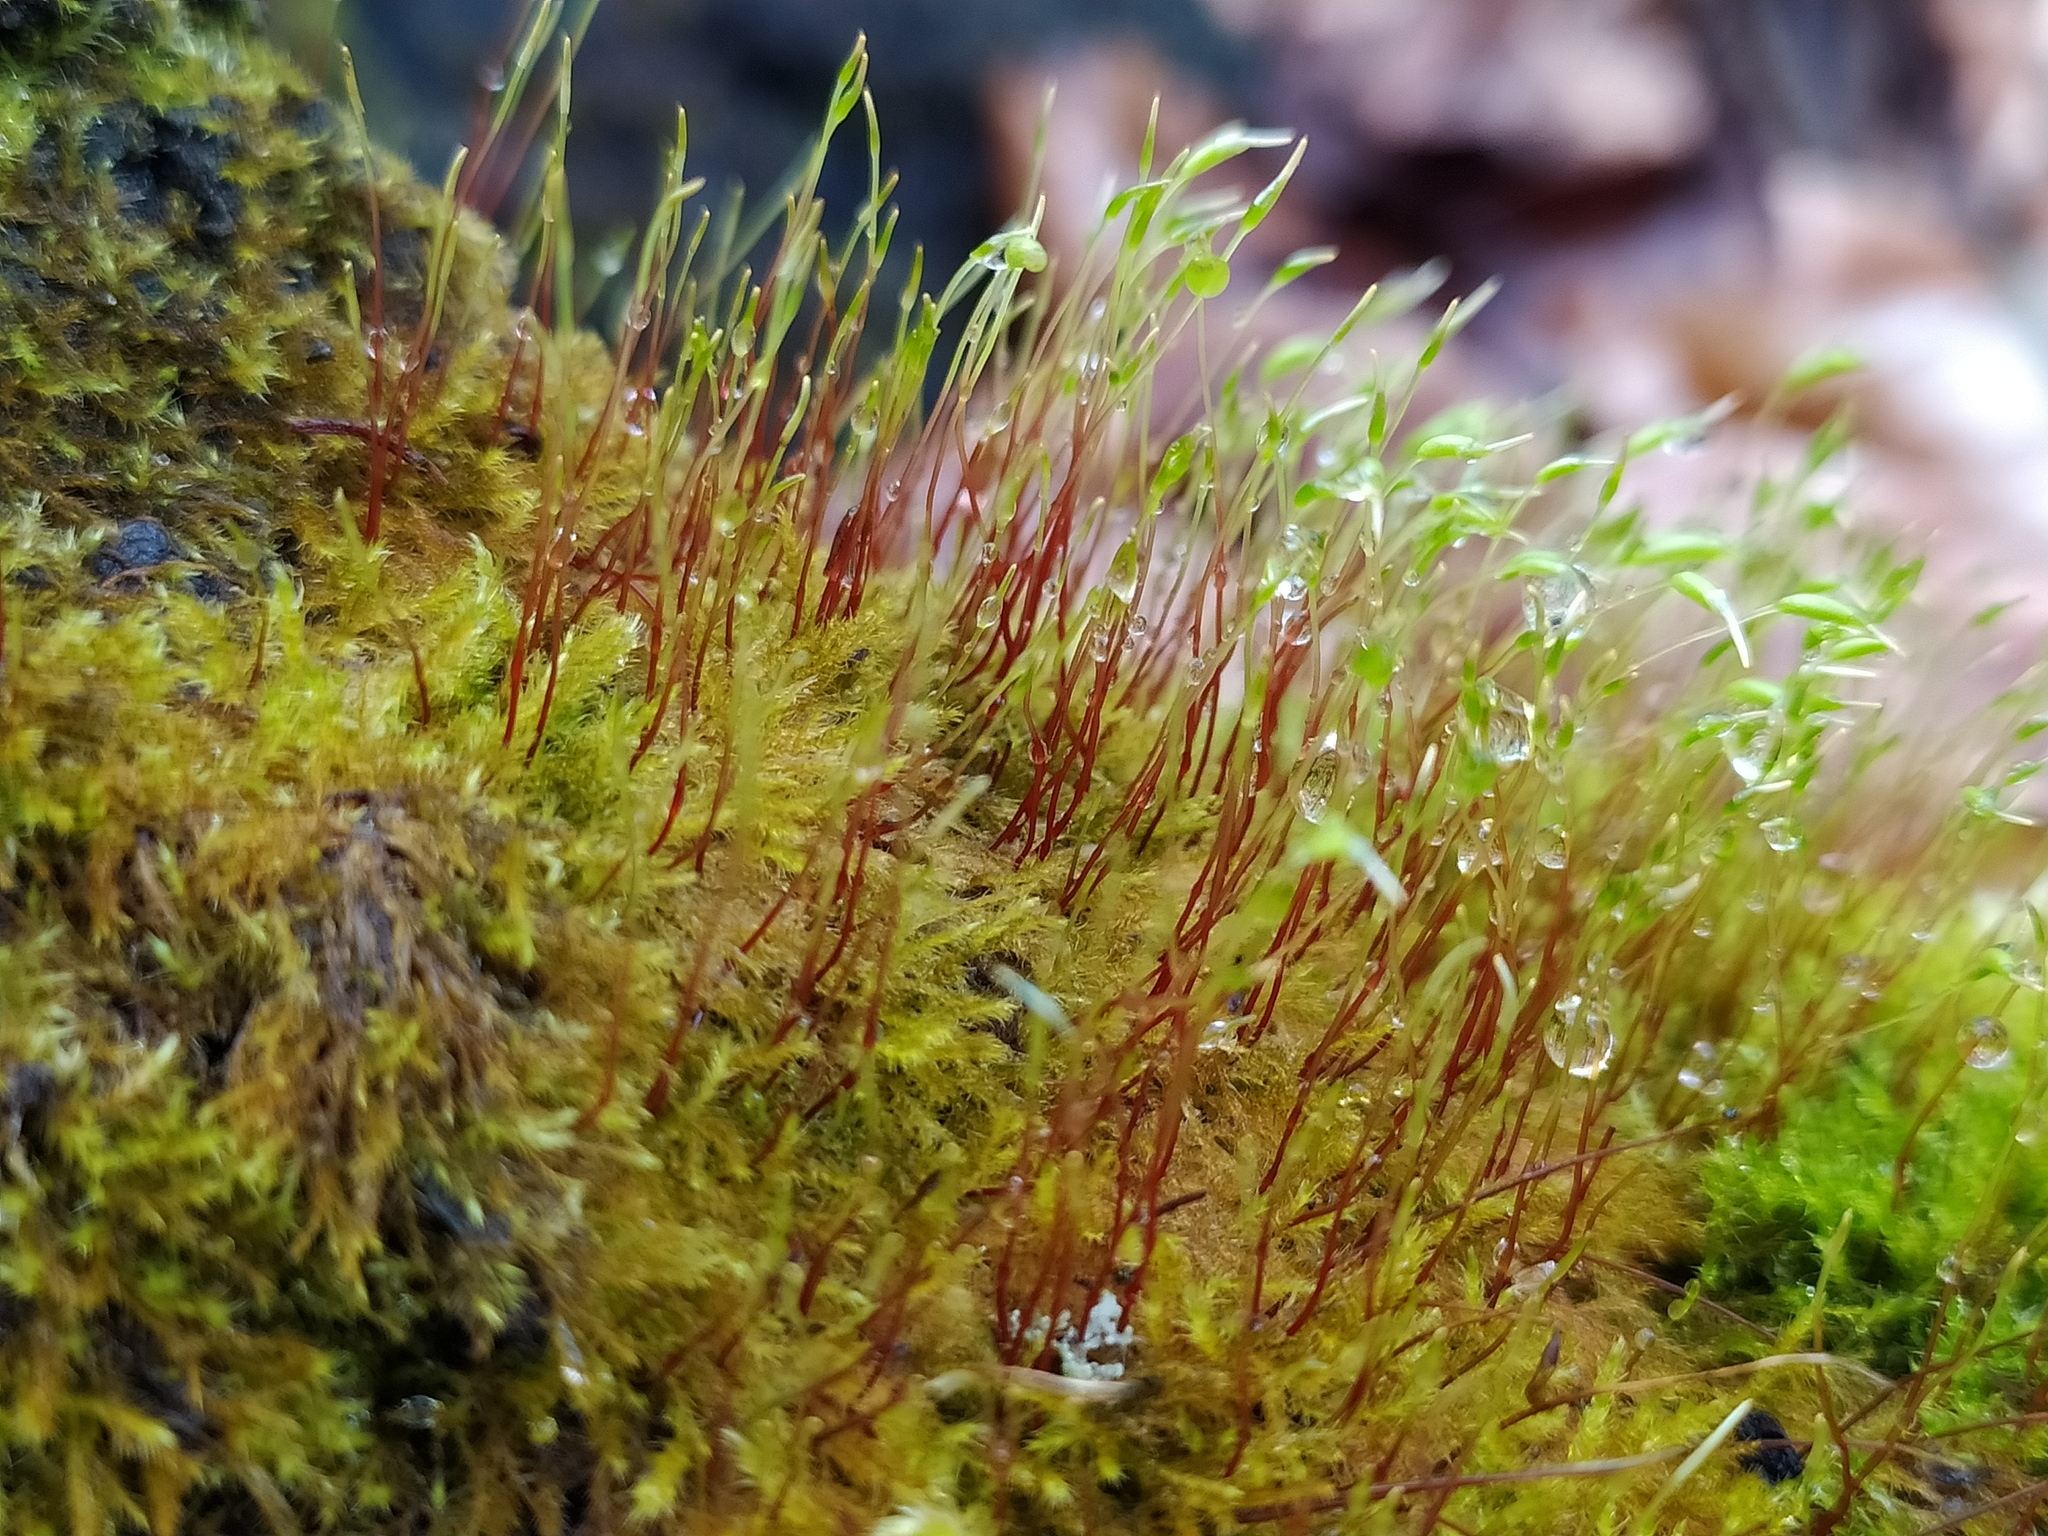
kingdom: Plantae
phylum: Bryophyta
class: Bryopsida
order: Hypnales
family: Amblystegiaceae
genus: Amblystegium
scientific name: Amblystegium serpens
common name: Jurkatzka's feather moss
